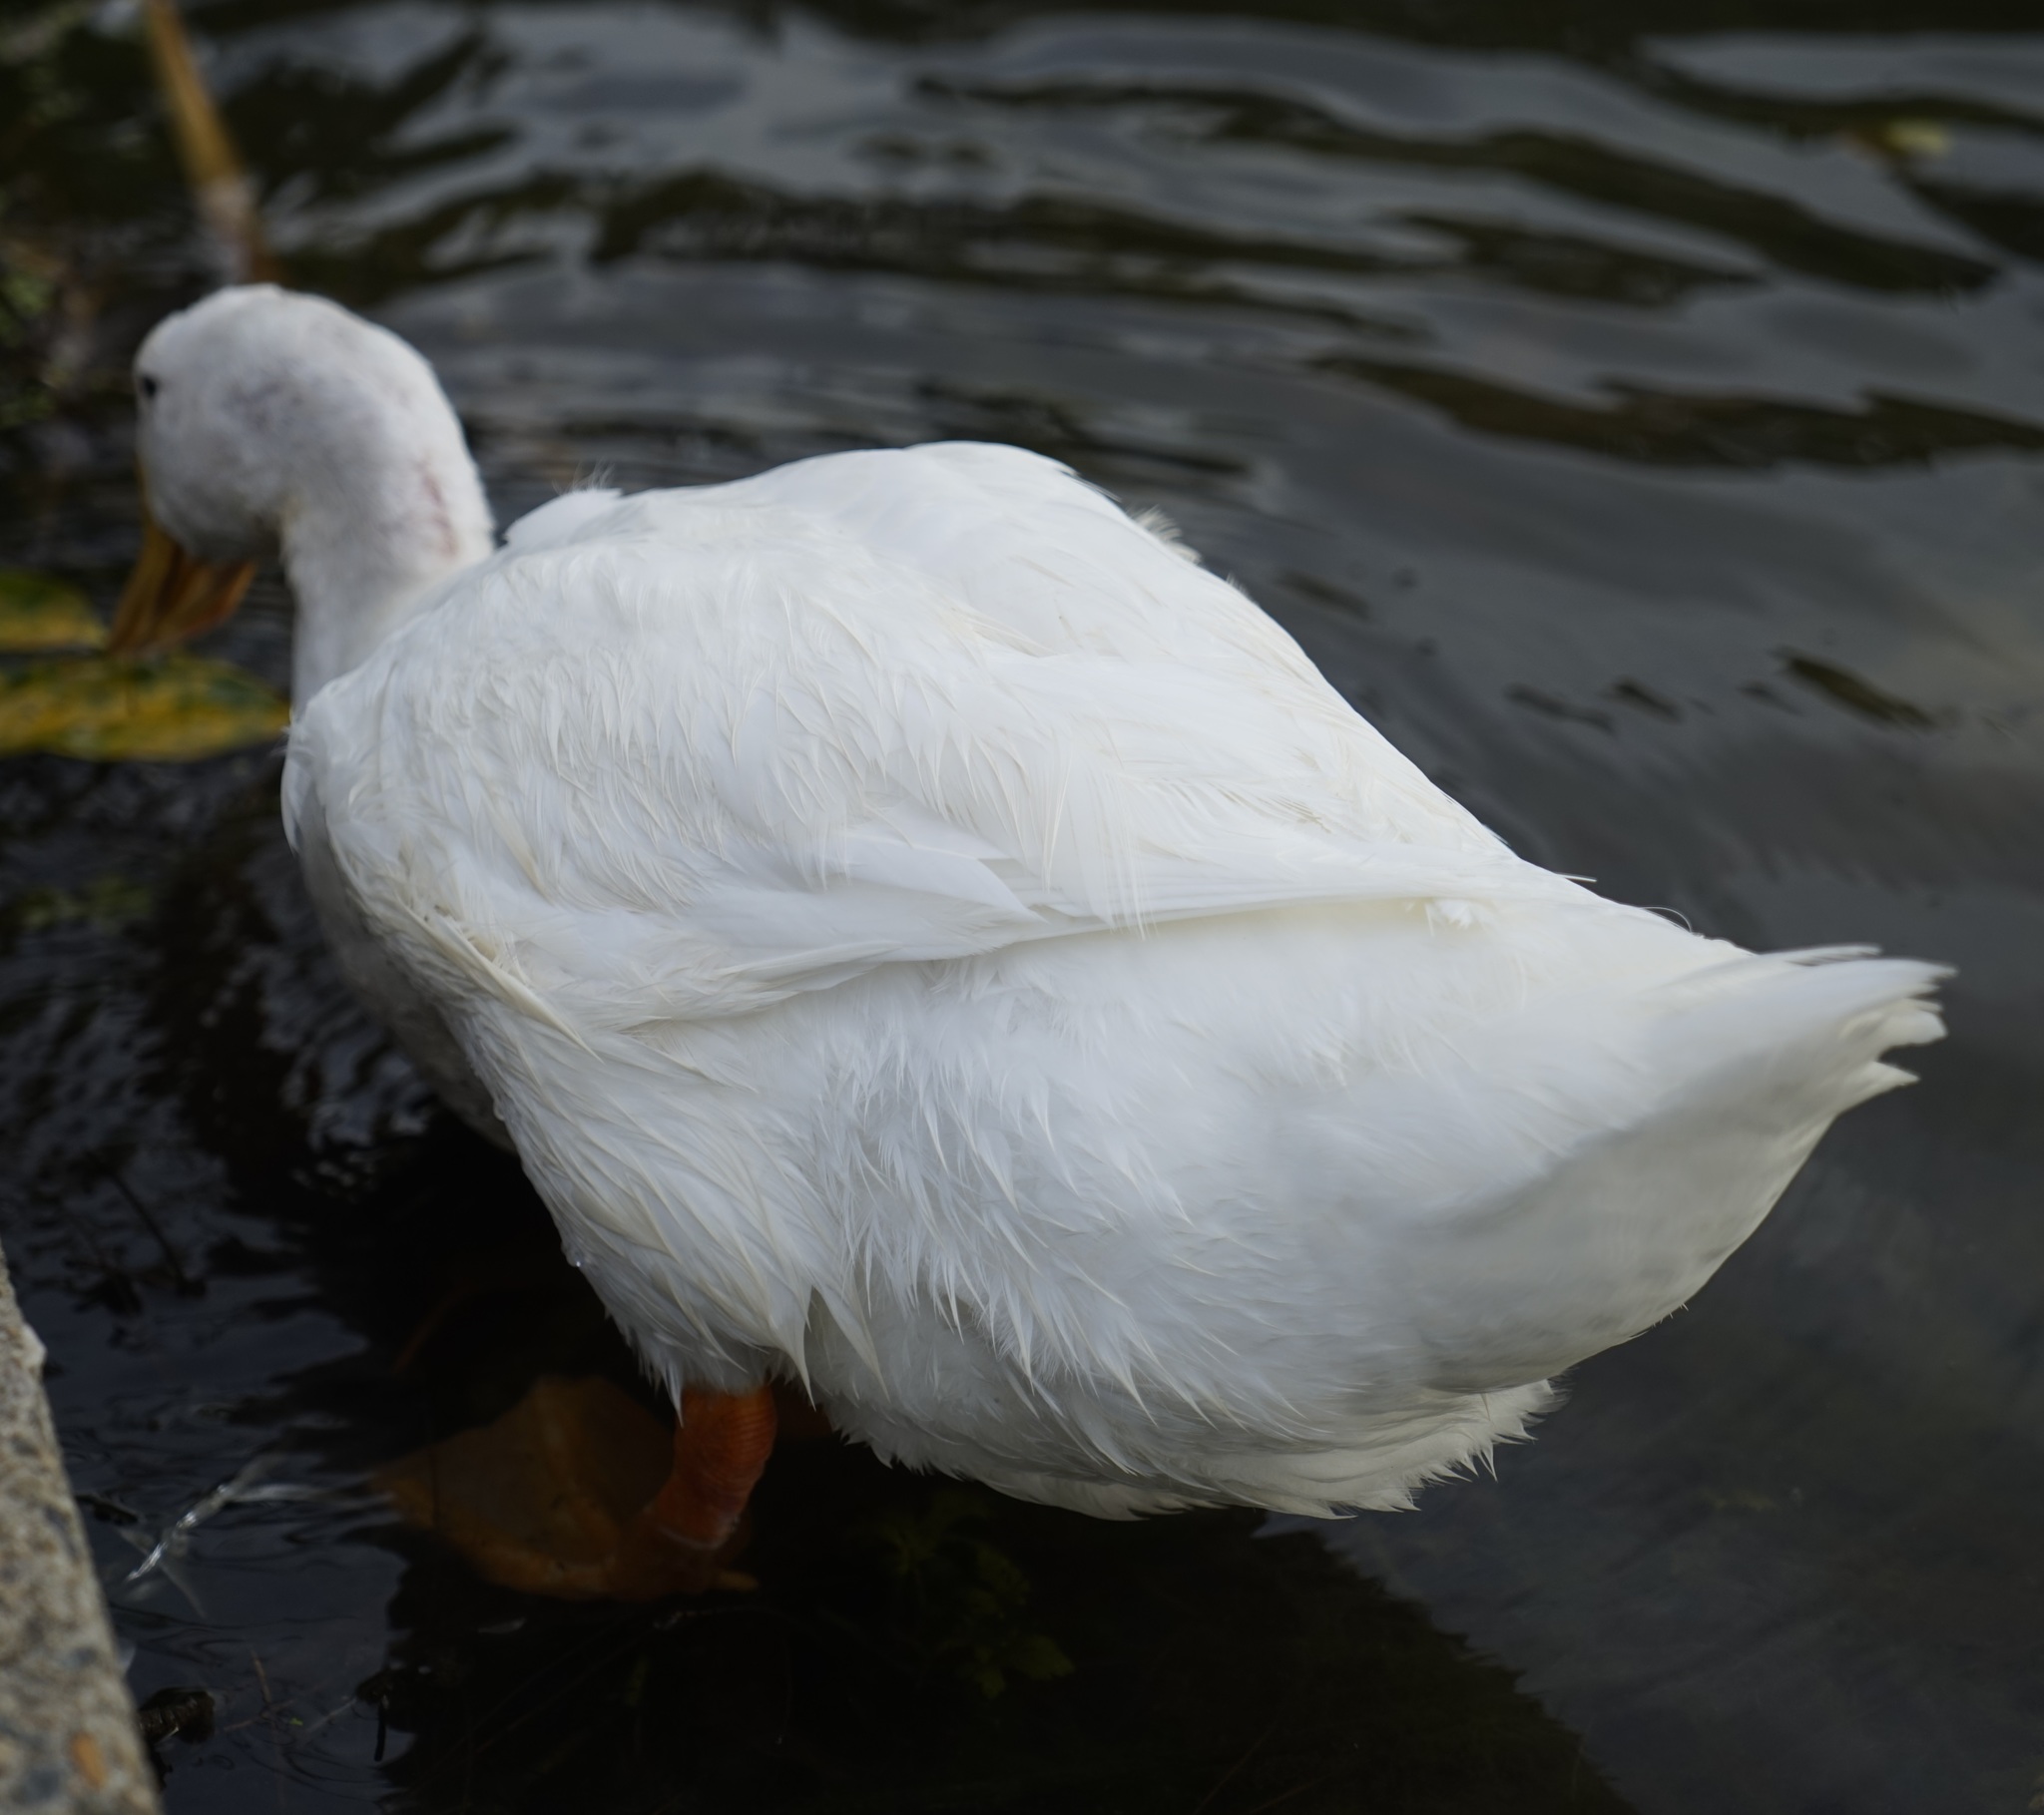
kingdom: Animalia
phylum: Chordata
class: Aves
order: Anseriformes
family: Anatidae
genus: Anas
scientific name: Anas platyrhynchos
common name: Mallard
